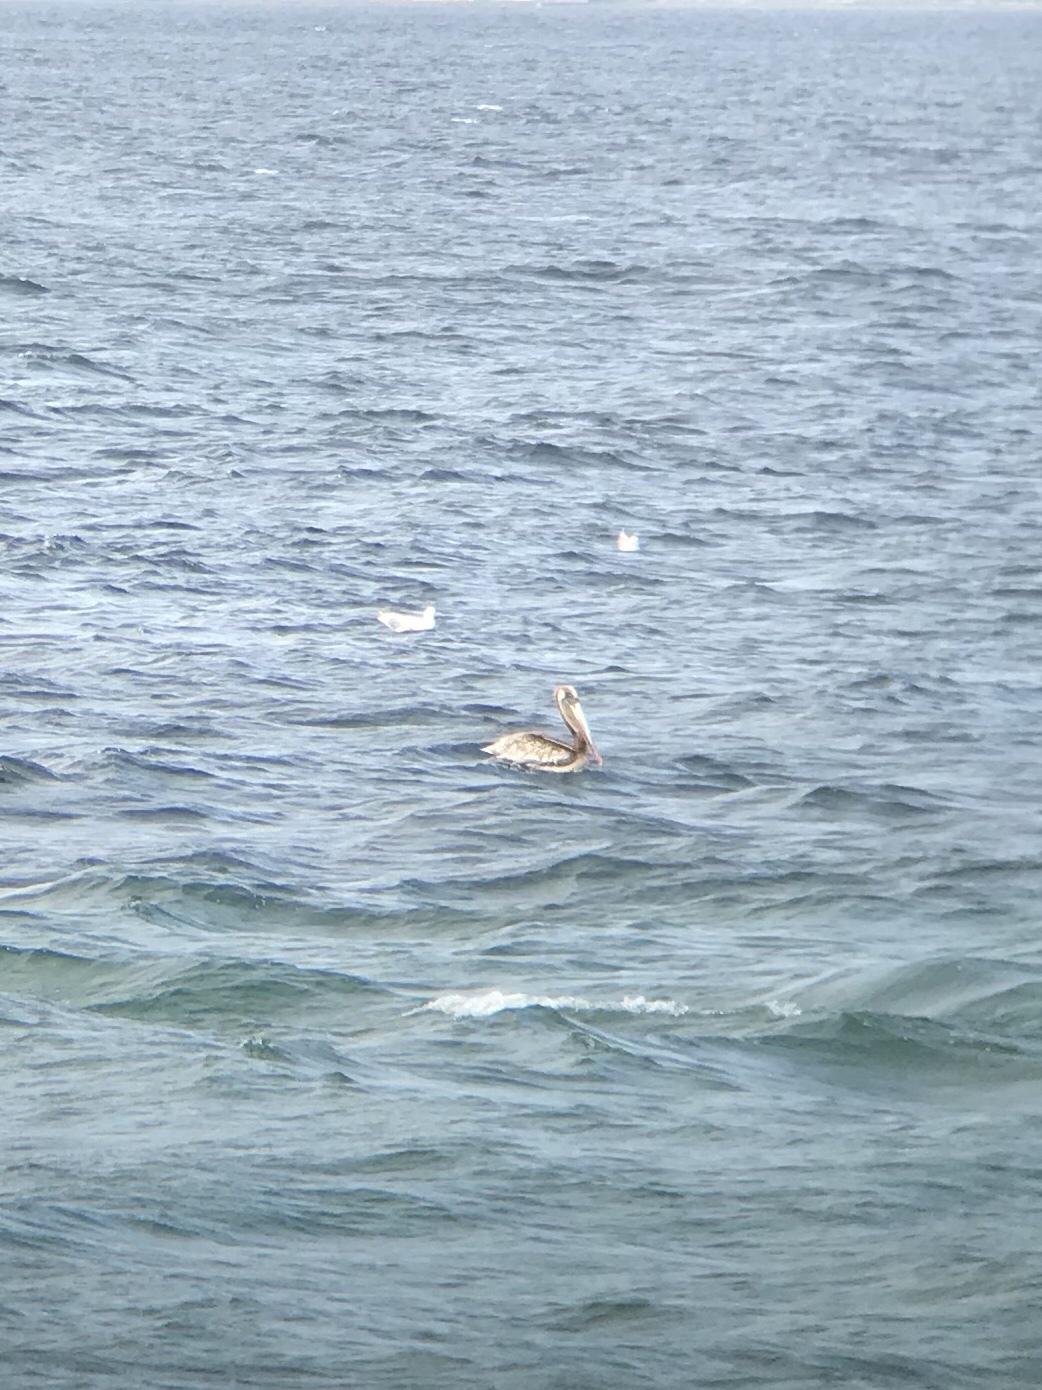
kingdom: Animalia
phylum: Chordata
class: Aves
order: Pelecaniformes
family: Pelecanidae
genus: Pelecanus
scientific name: Pelecanus occidentalis
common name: Brown pelican
